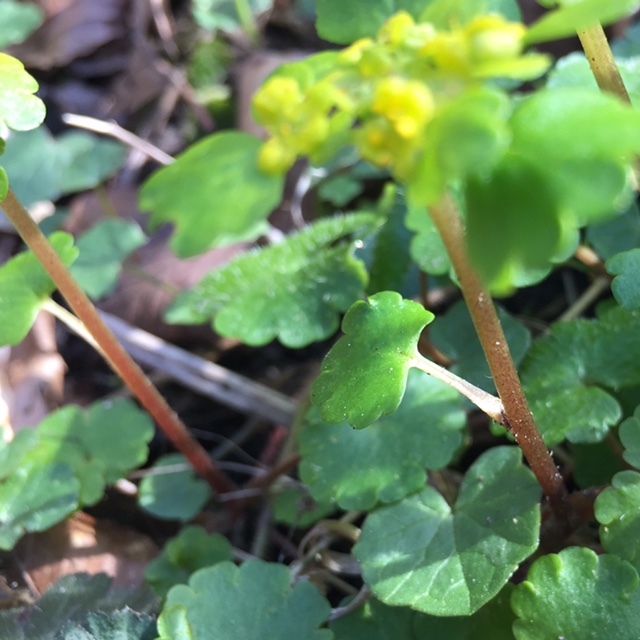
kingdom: Plantae
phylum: Tracheophyta
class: Magnoliopsida
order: Saxifragales
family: Saxifragaceae
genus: Chrysosplenium
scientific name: Chrysosplenium alternifolium
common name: Alternate-leaved golden-saxifrage
